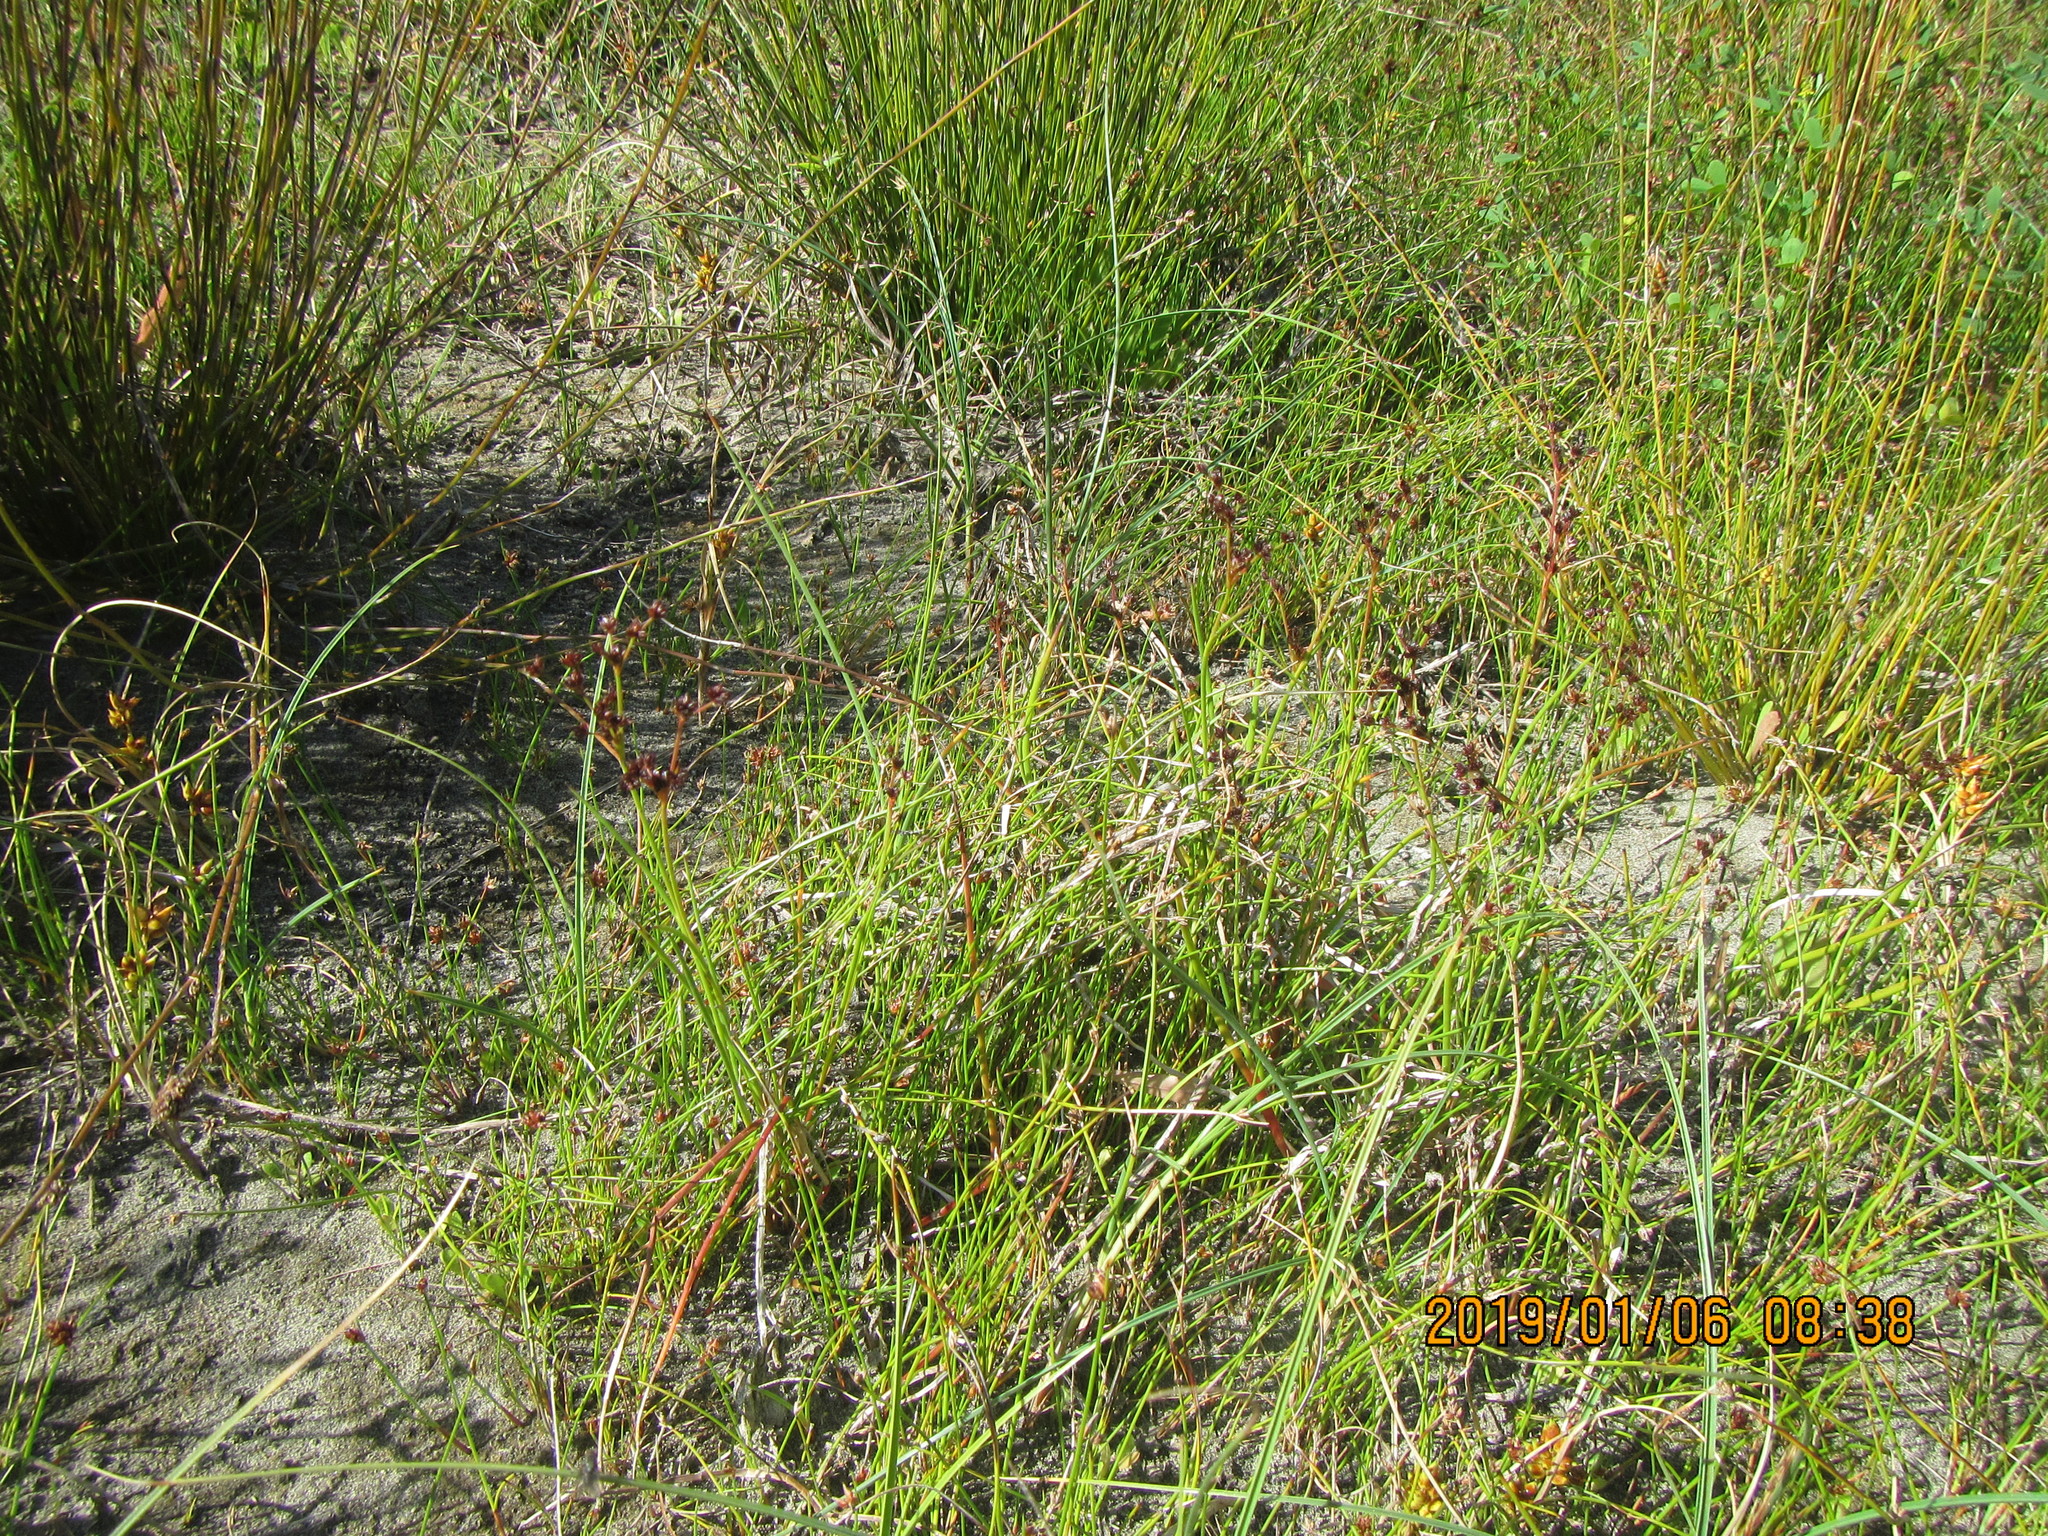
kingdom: Plantae
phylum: Tracheophyta
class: Liliopsida
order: Poales
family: Juncaceae
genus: Juncus
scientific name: Juncus articulatus
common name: Jointed rush
